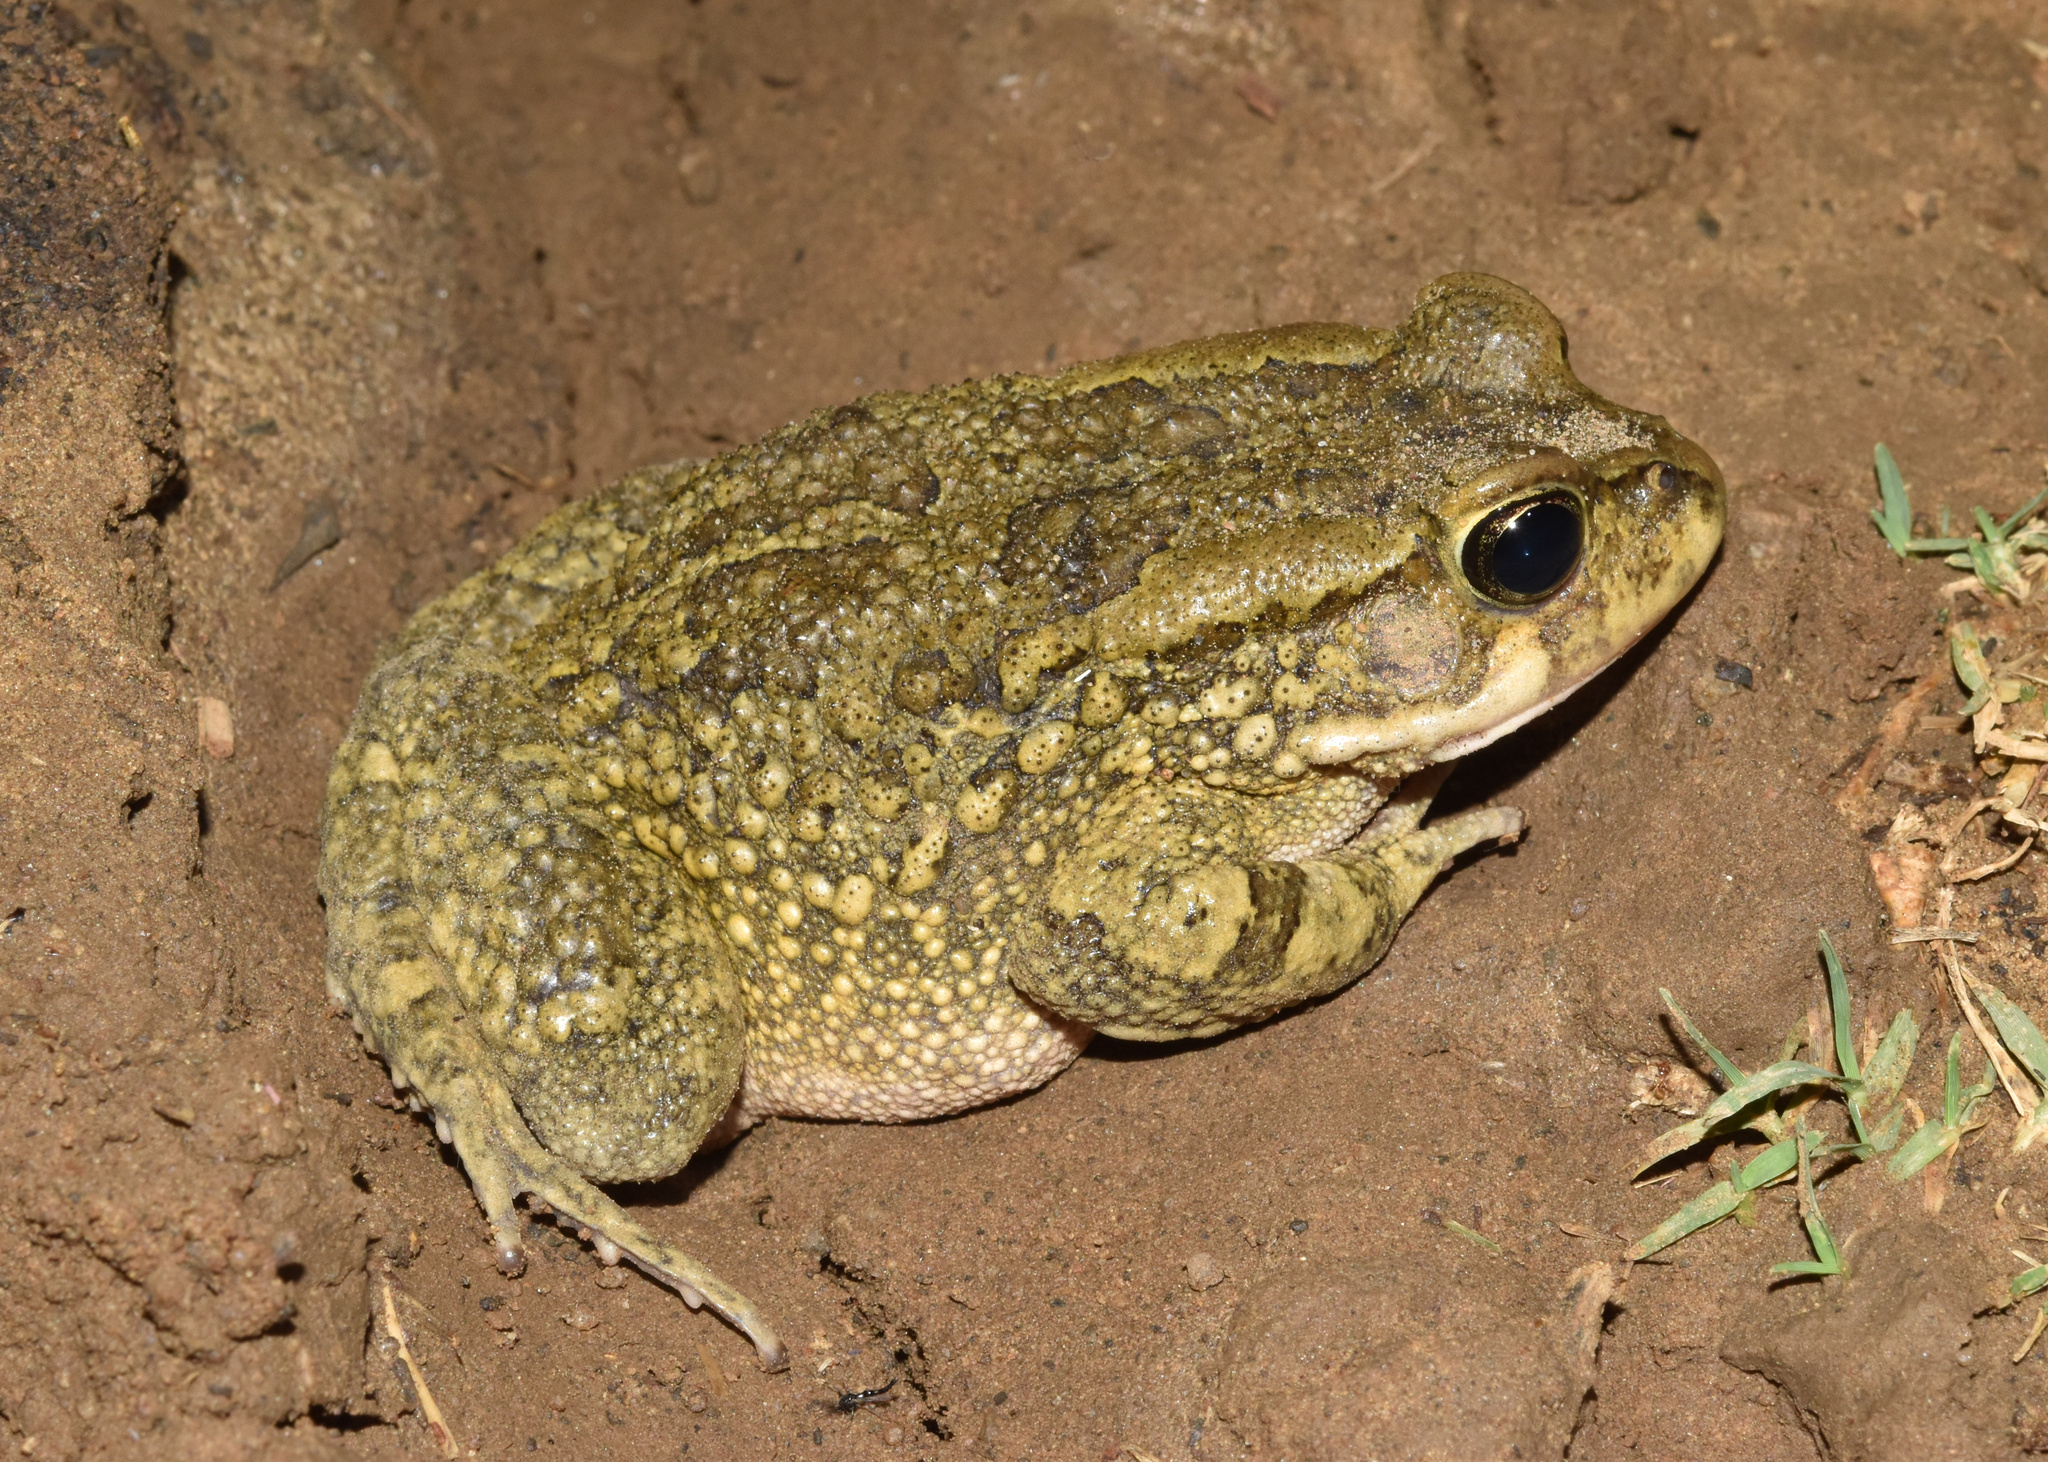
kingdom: Animalia
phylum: Chordata
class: Amphibia
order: Anura
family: Bufonidae
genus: Sclerophrys
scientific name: Sclerophrys capensis
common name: Ranger’s toad
